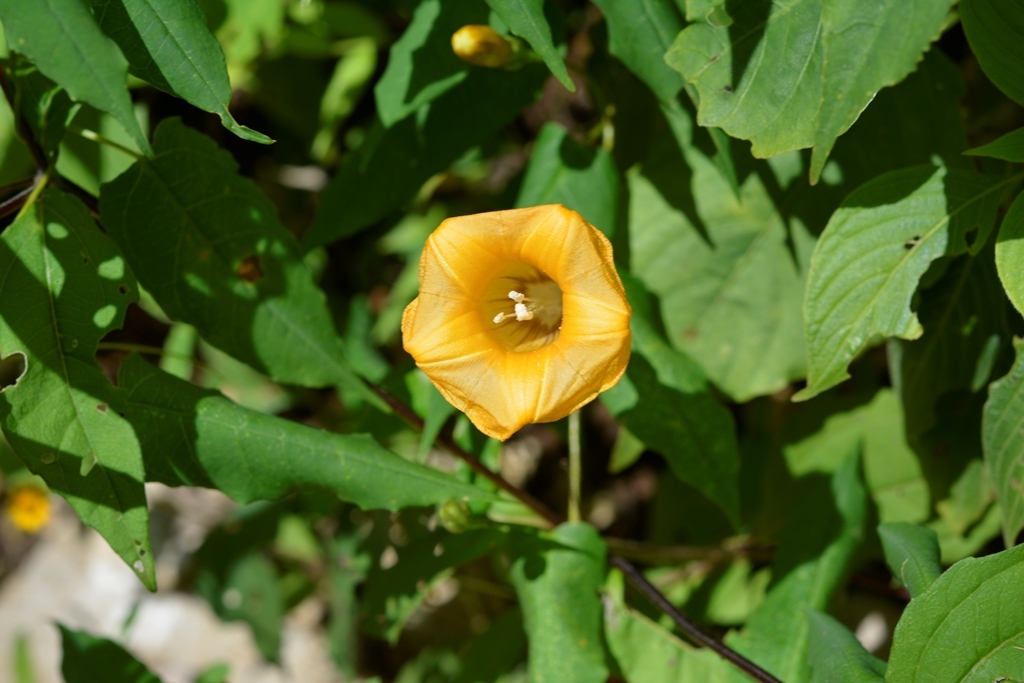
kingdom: Plantae
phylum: Tracheophyta
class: Magnoliopsida
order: Solanales
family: Convolvulaceae
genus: Ipomoea
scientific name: Ipomoea aurantiaca
